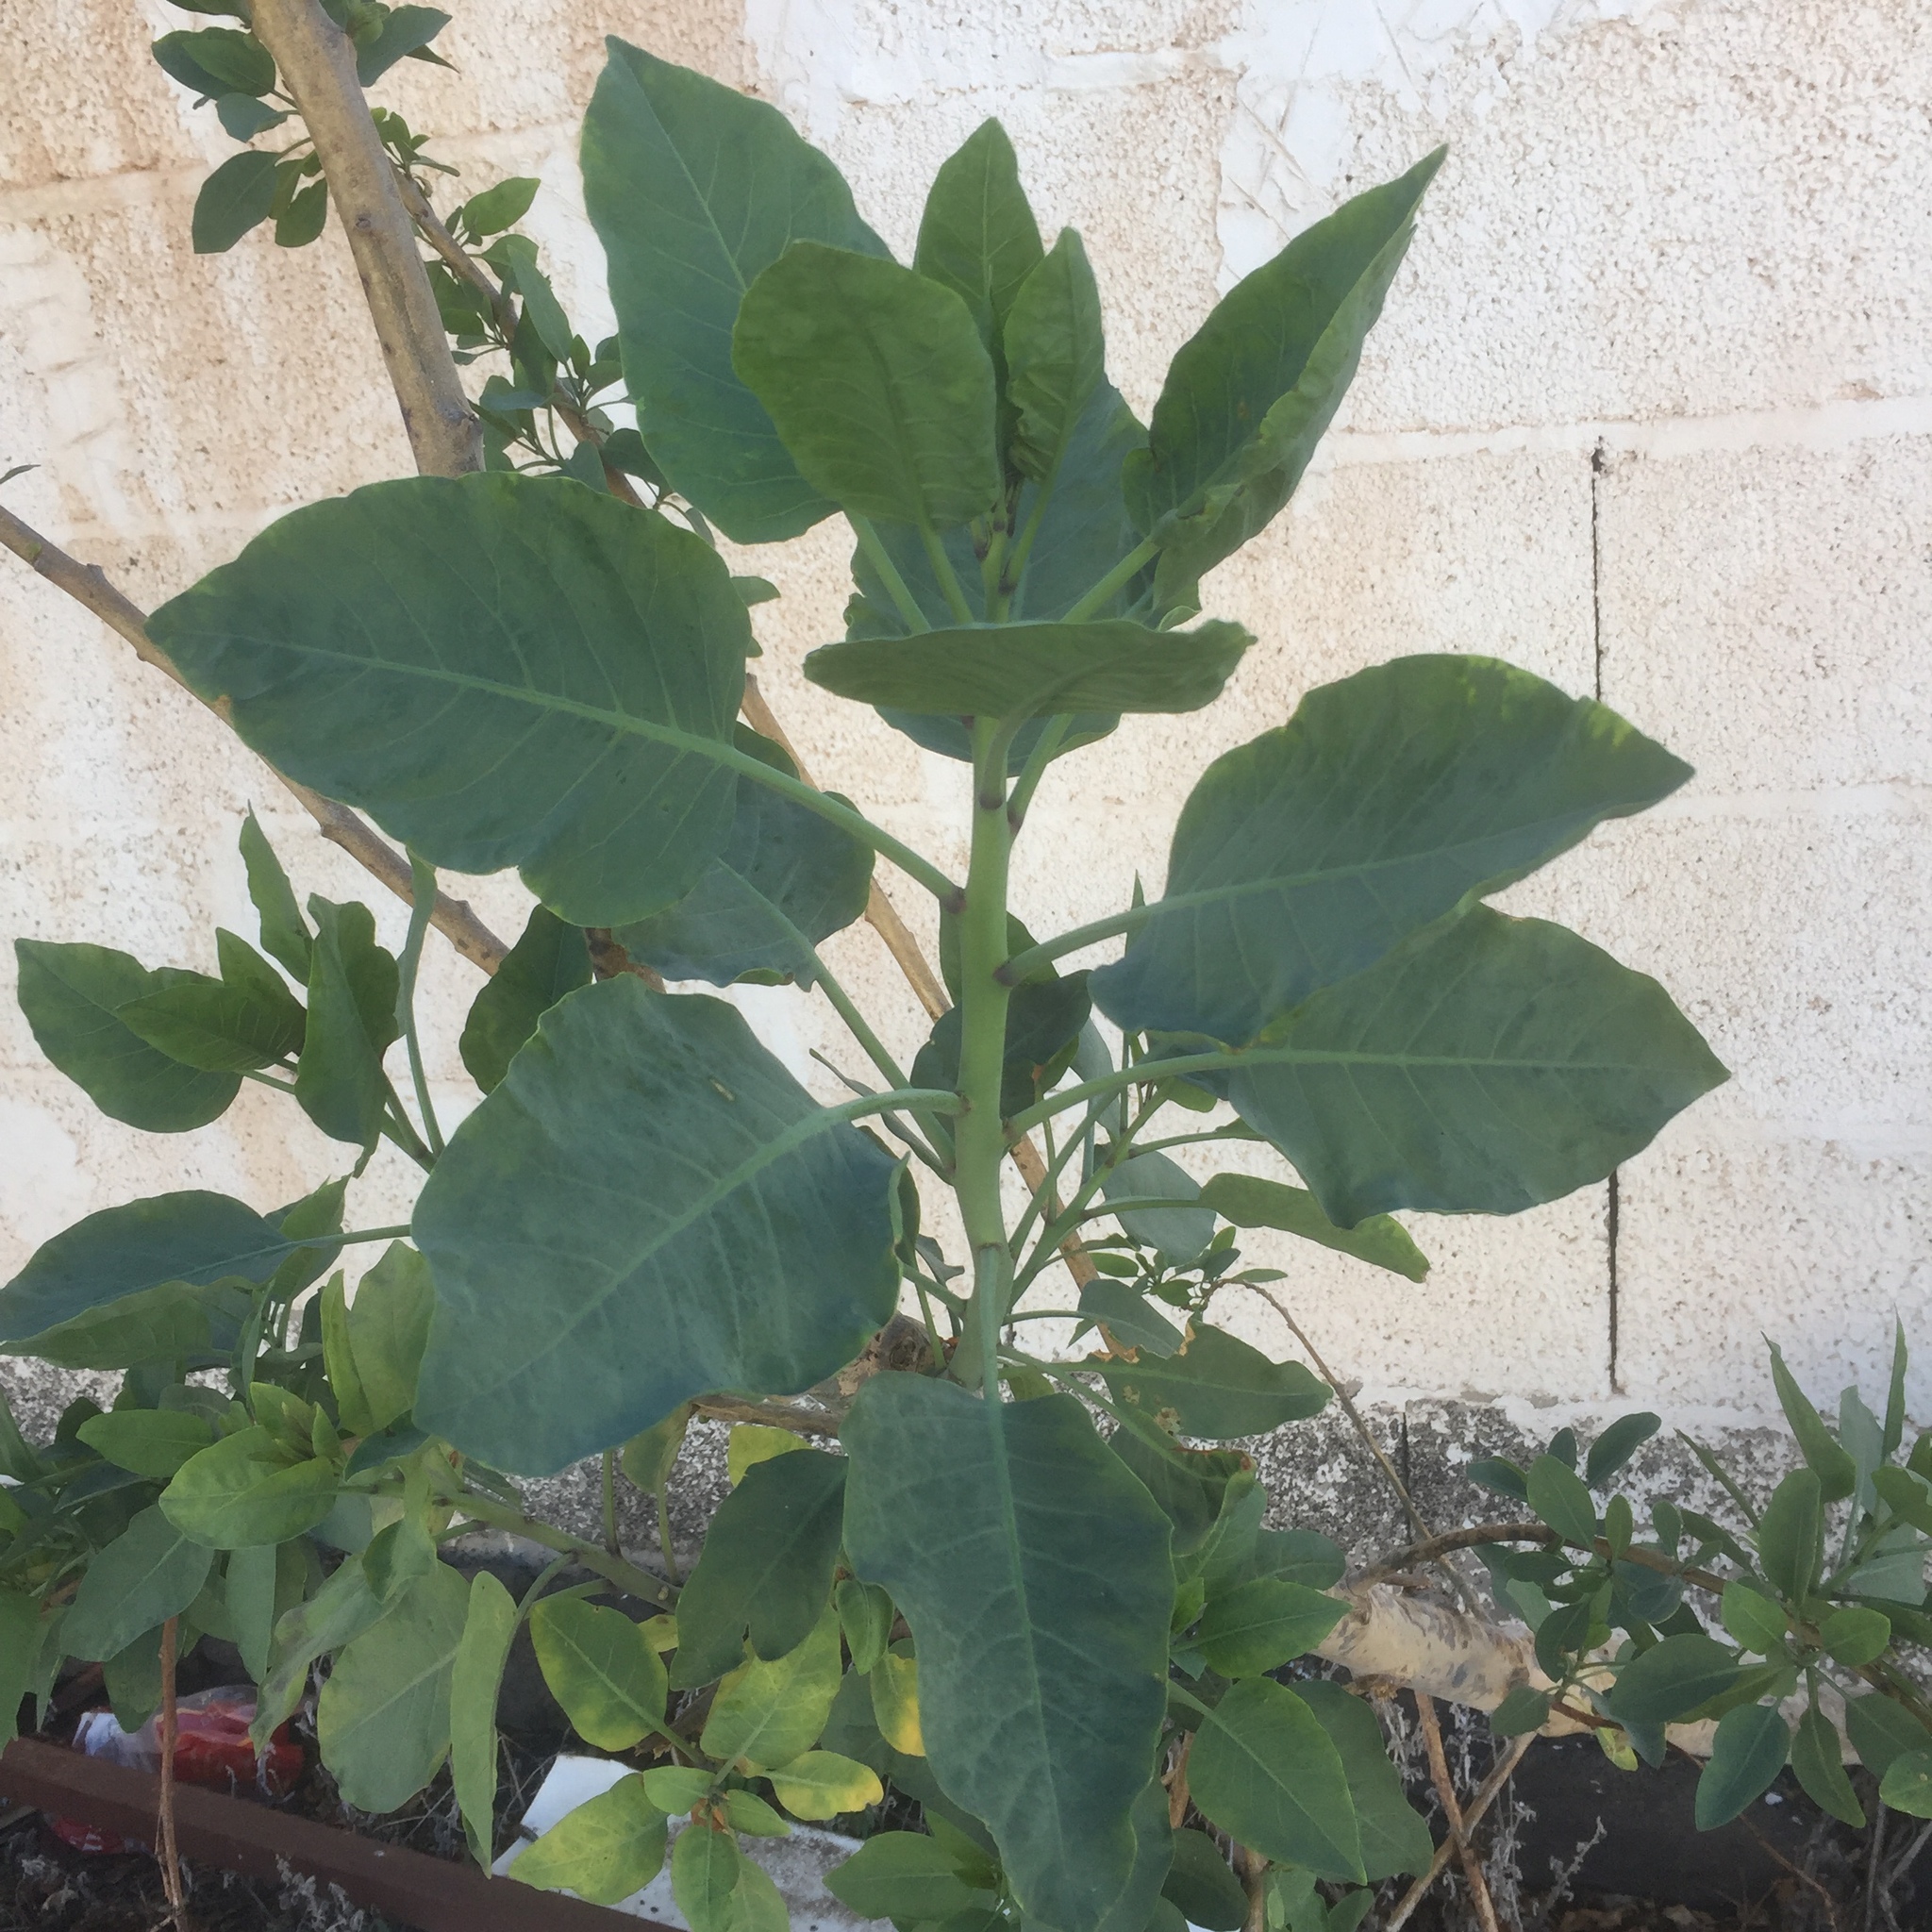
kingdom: Plantae
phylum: Tracheophyta
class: Magnoliopsida
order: Solanales
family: Solanaceae
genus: Nicotiana
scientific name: Nicotiana glauca
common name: Tree tobacco
